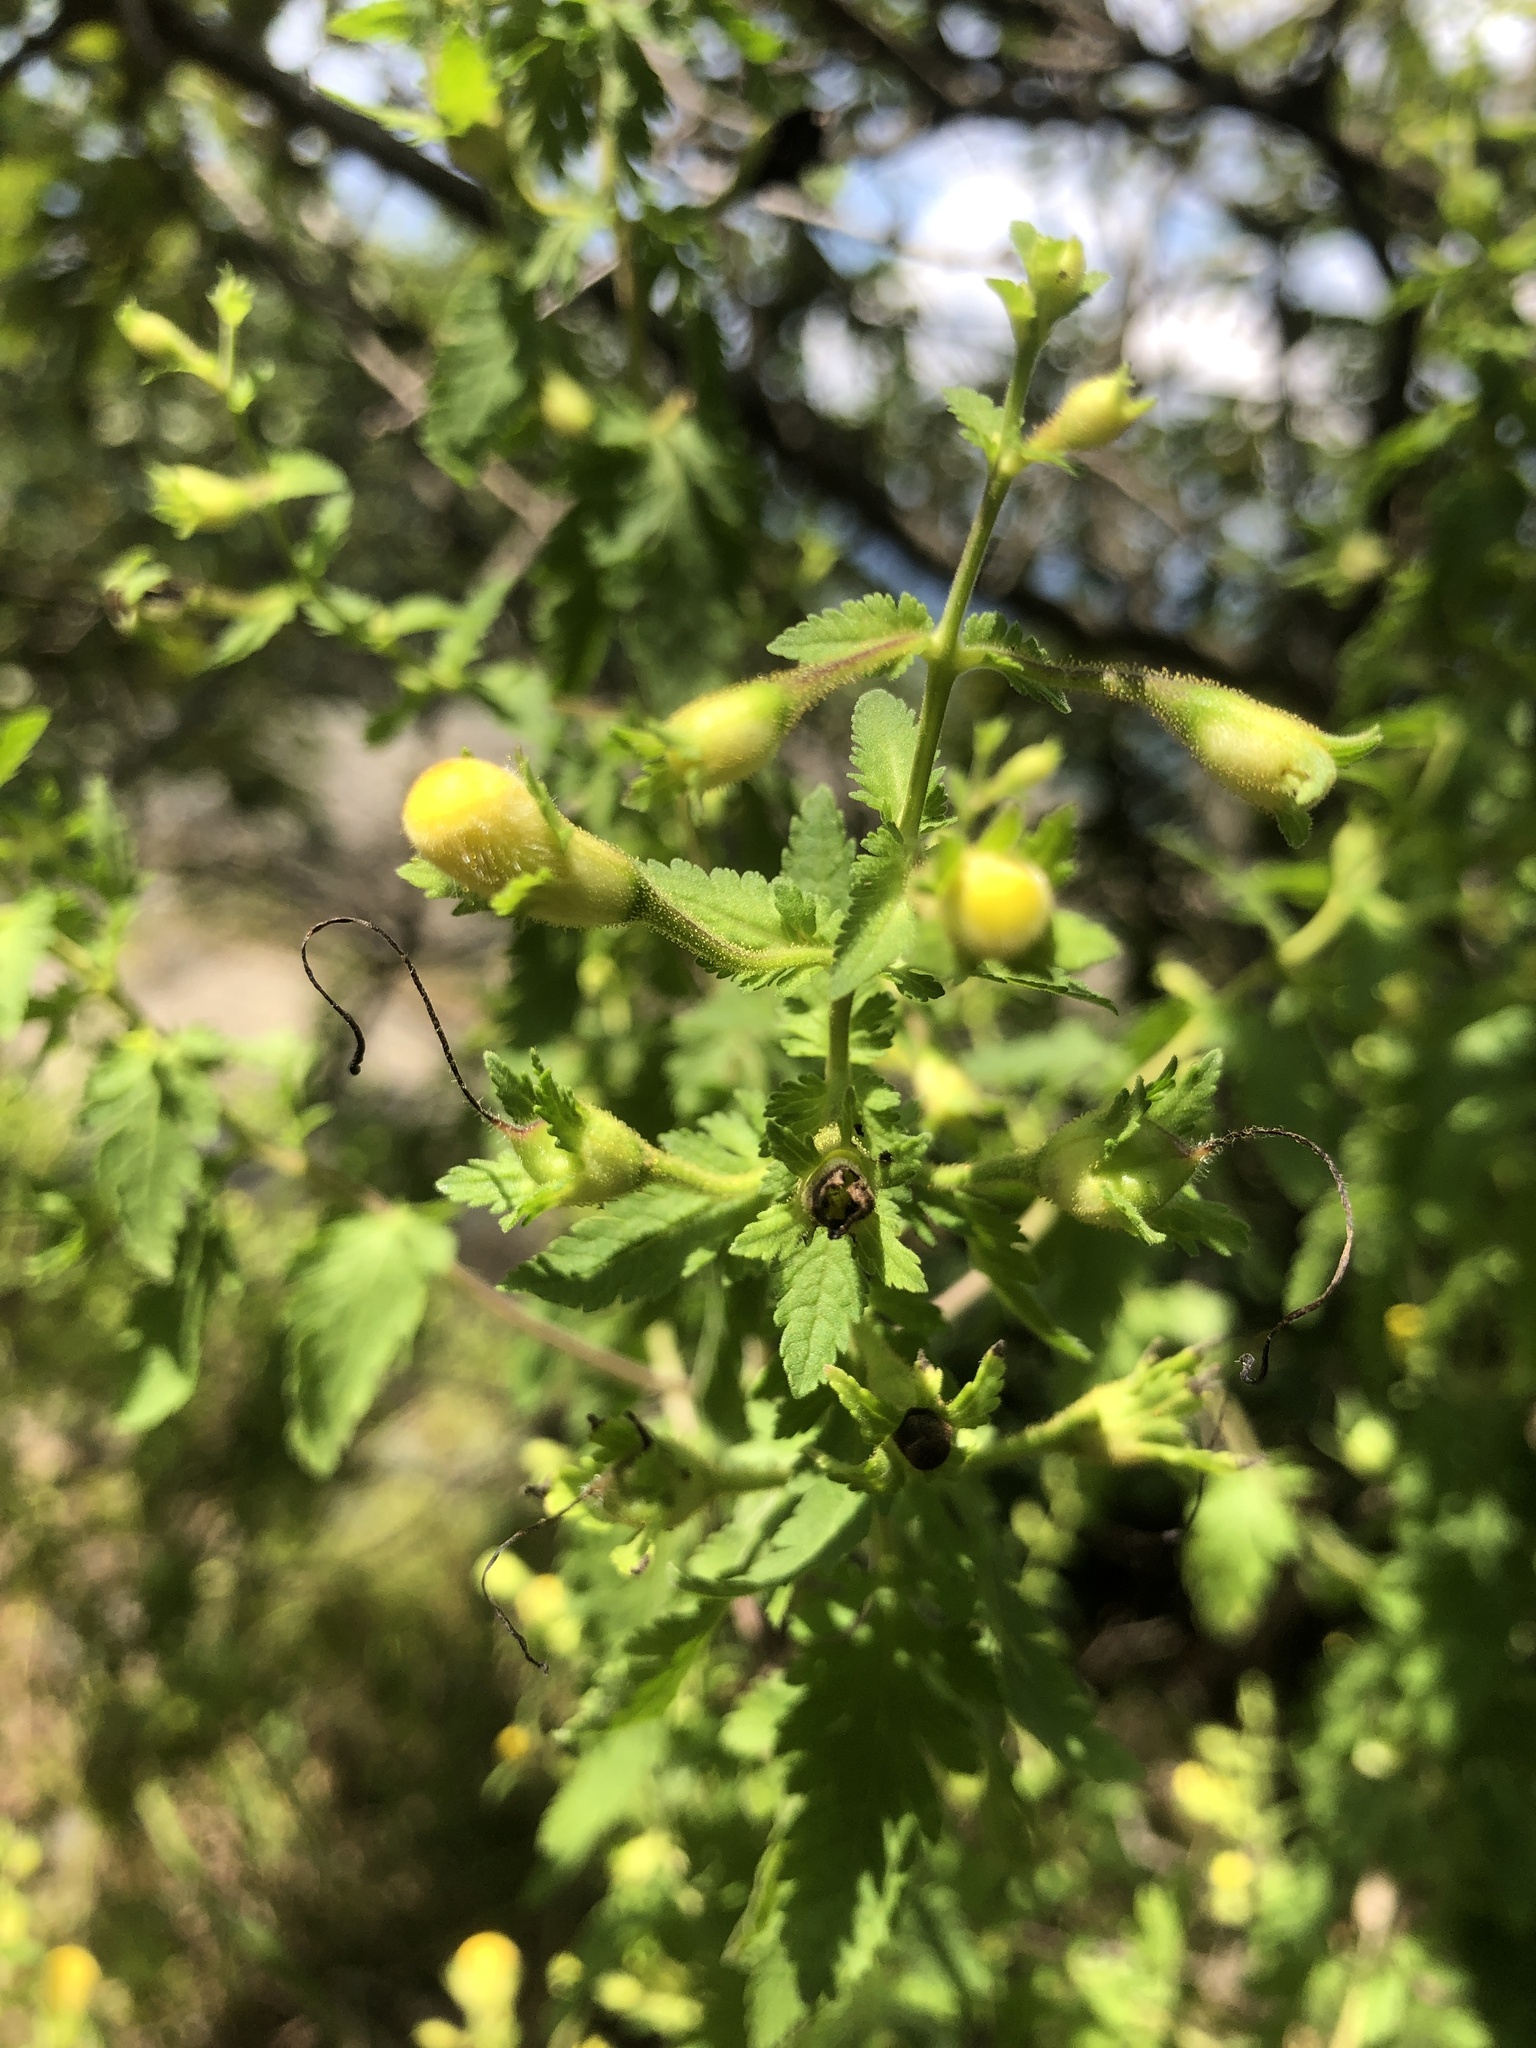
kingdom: Plantae
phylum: Tracheophyta
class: Magnoliopsida
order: Lamiales
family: Orobanchaceae
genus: Aureolaria
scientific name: Aureolaria pedicularia
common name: Annual false foxglove
